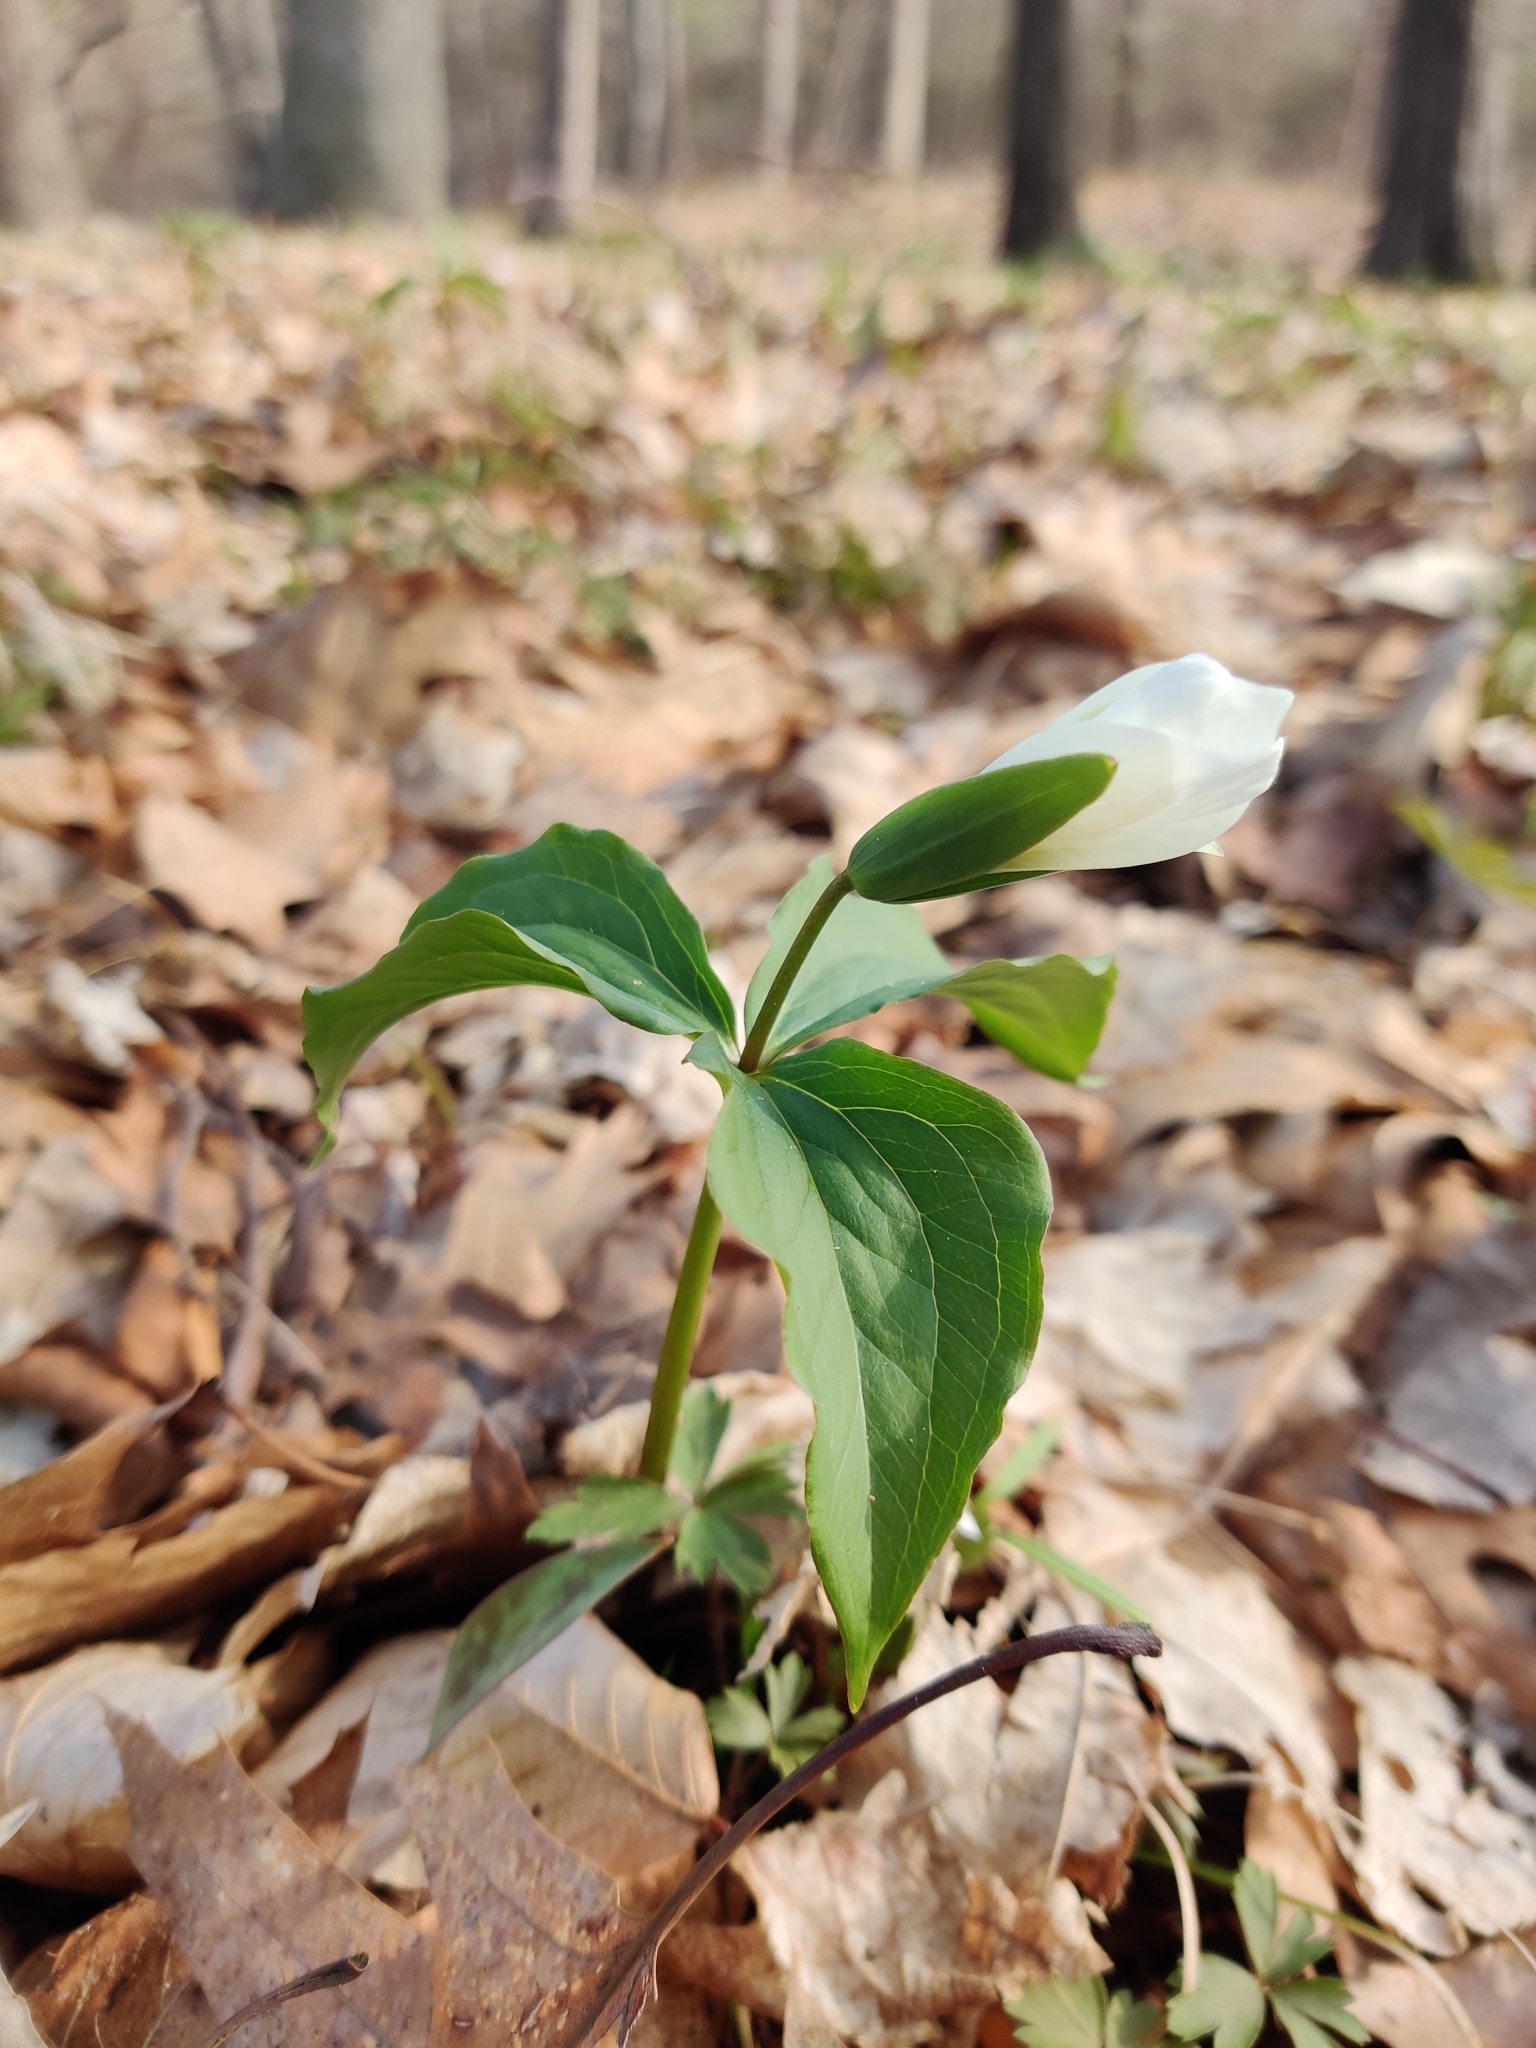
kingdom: Plantae
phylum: Tracheophyta
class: Liliopsida
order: Liliales
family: Melanthiaceae
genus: Trillium
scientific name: Trillium grandiflorum
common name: Great white trillium
